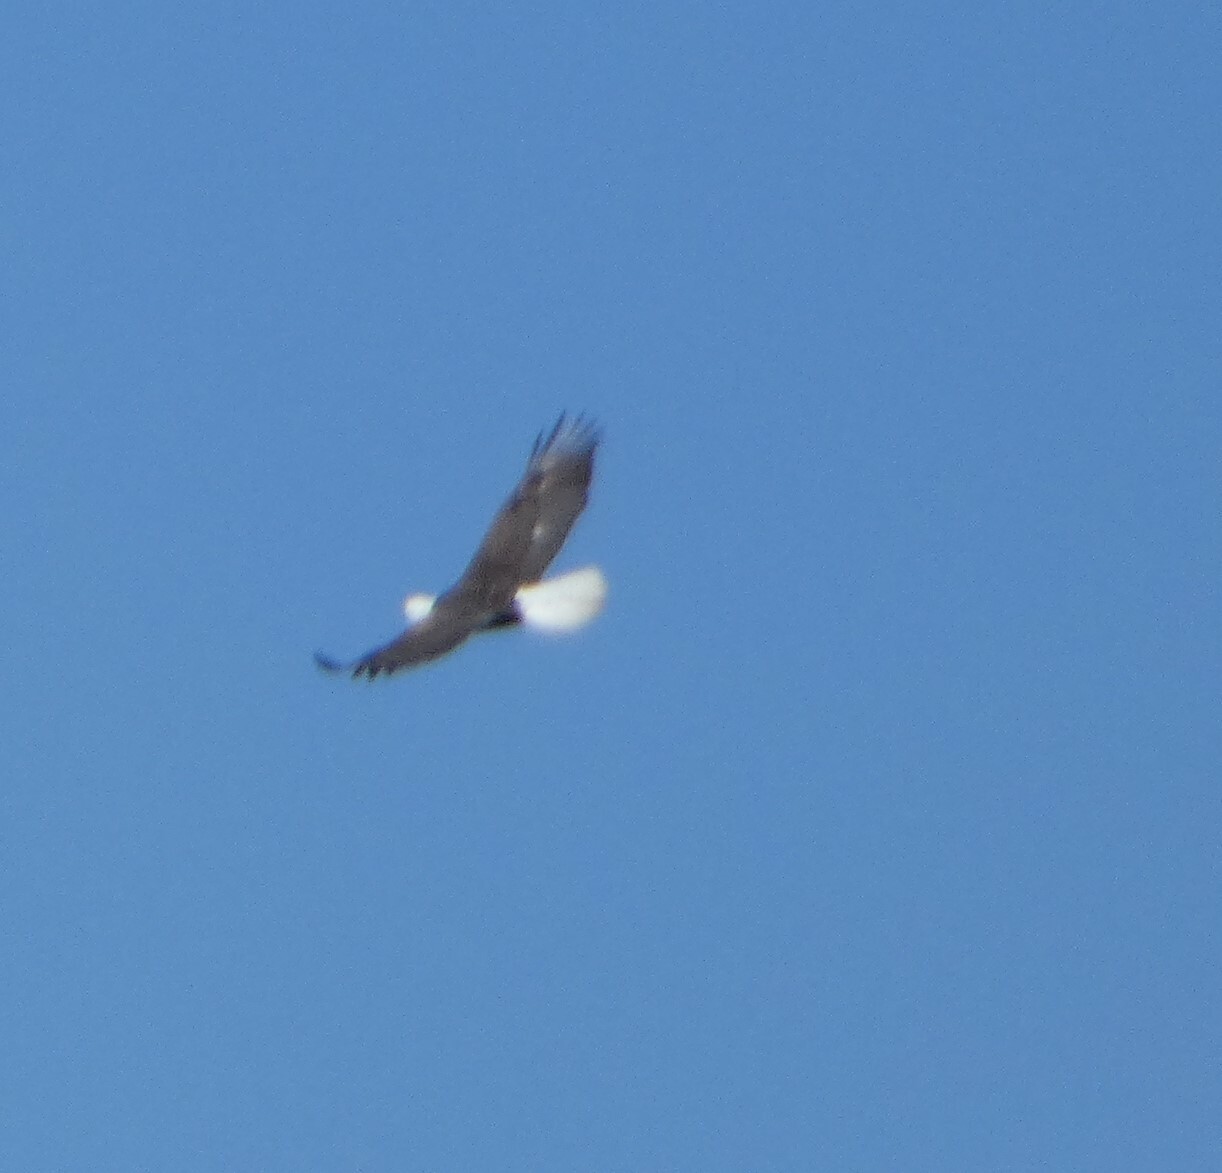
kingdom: Animalia
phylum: Chordata
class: Aves
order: Accipitriformes
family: Accipitridae
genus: Haliaeetus
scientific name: Haliaeetus leucocephalus
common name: Bald eagle
